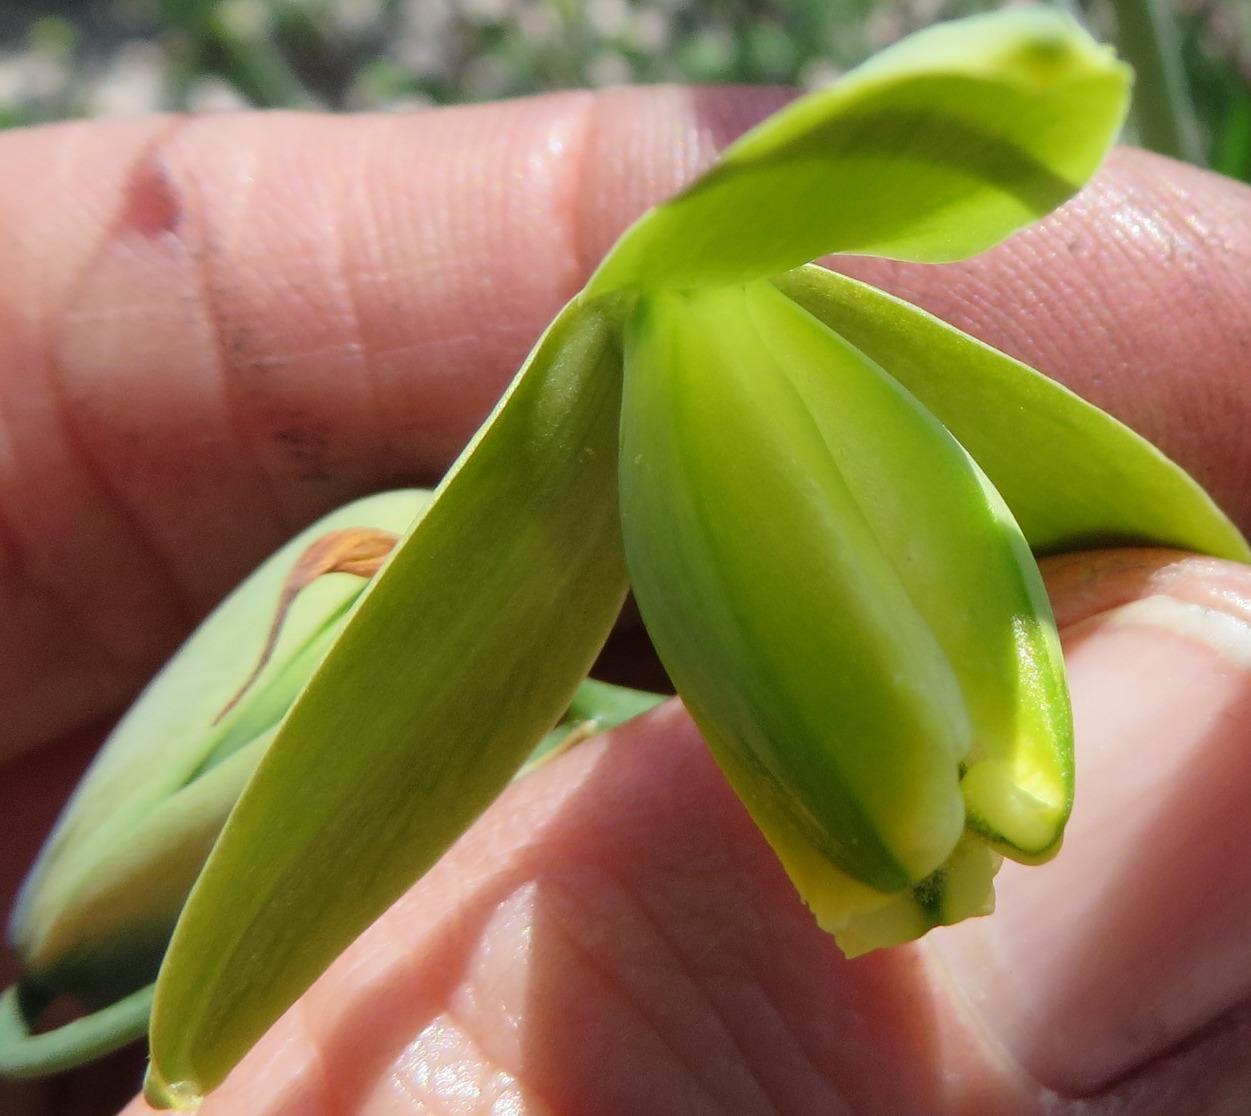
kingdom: Plantae
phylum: Tracheophyta
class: Liliopsida
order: Asparagales
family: Asparagaceae
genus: Albuca
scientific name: Albuca spiralis
